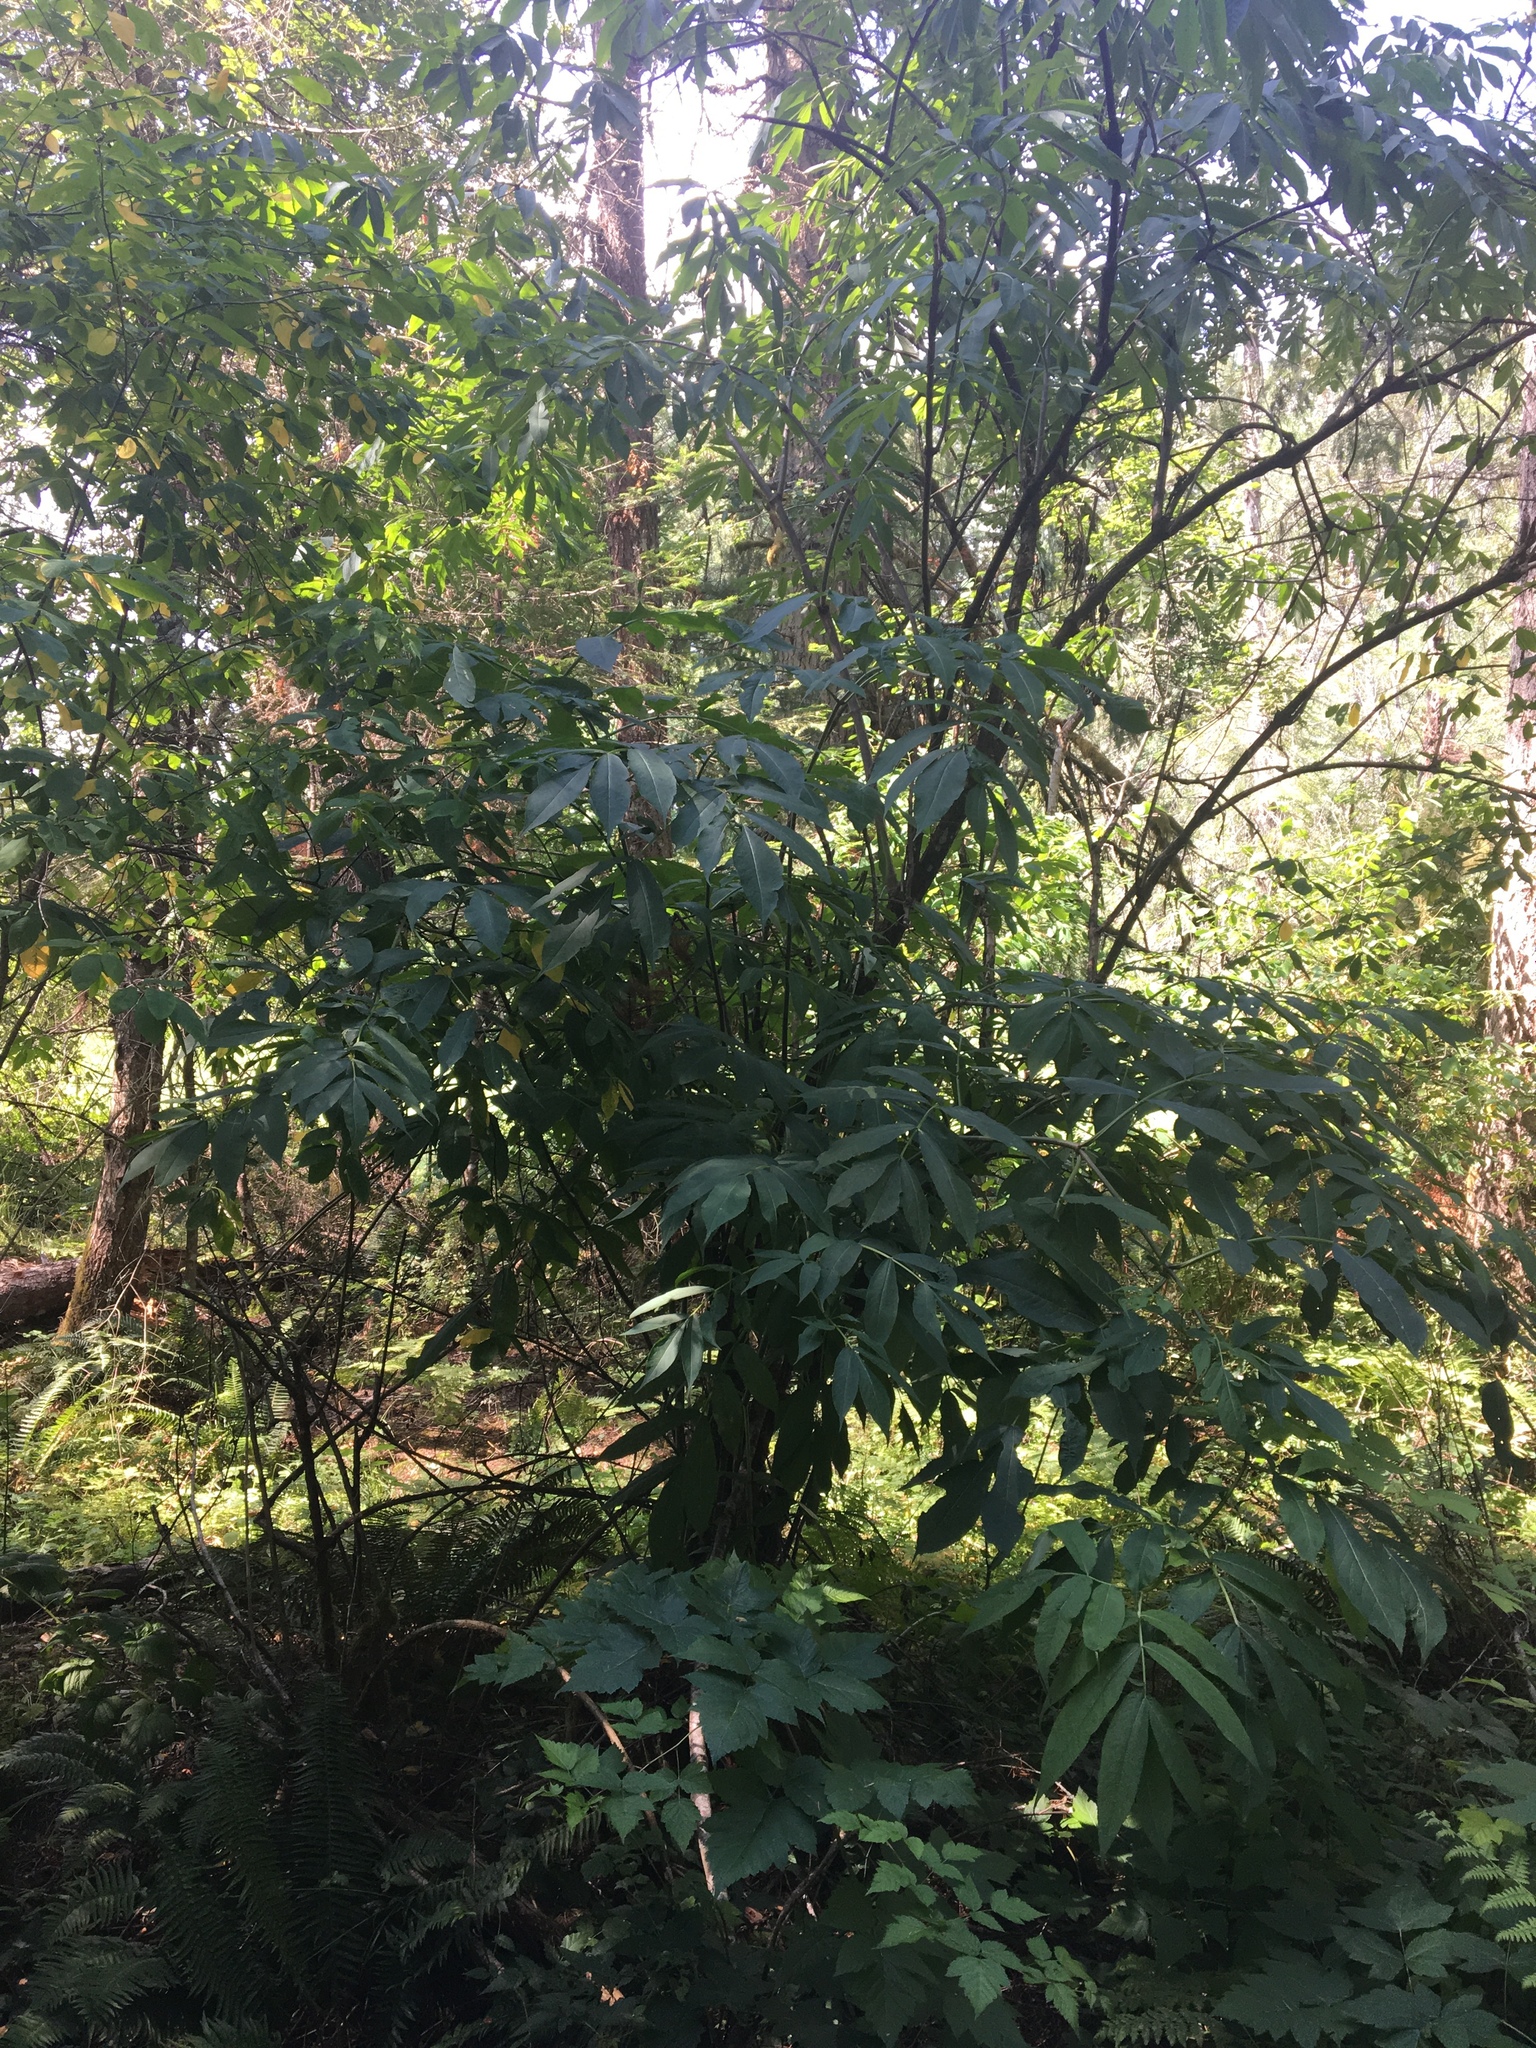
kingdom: Plantae
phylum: Tracheophyta
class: Magnoliopsida
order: Dipsacales
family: Viburnaceae
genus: Sambucus
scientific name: Sambucus racemosa
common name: Red-berried elder
